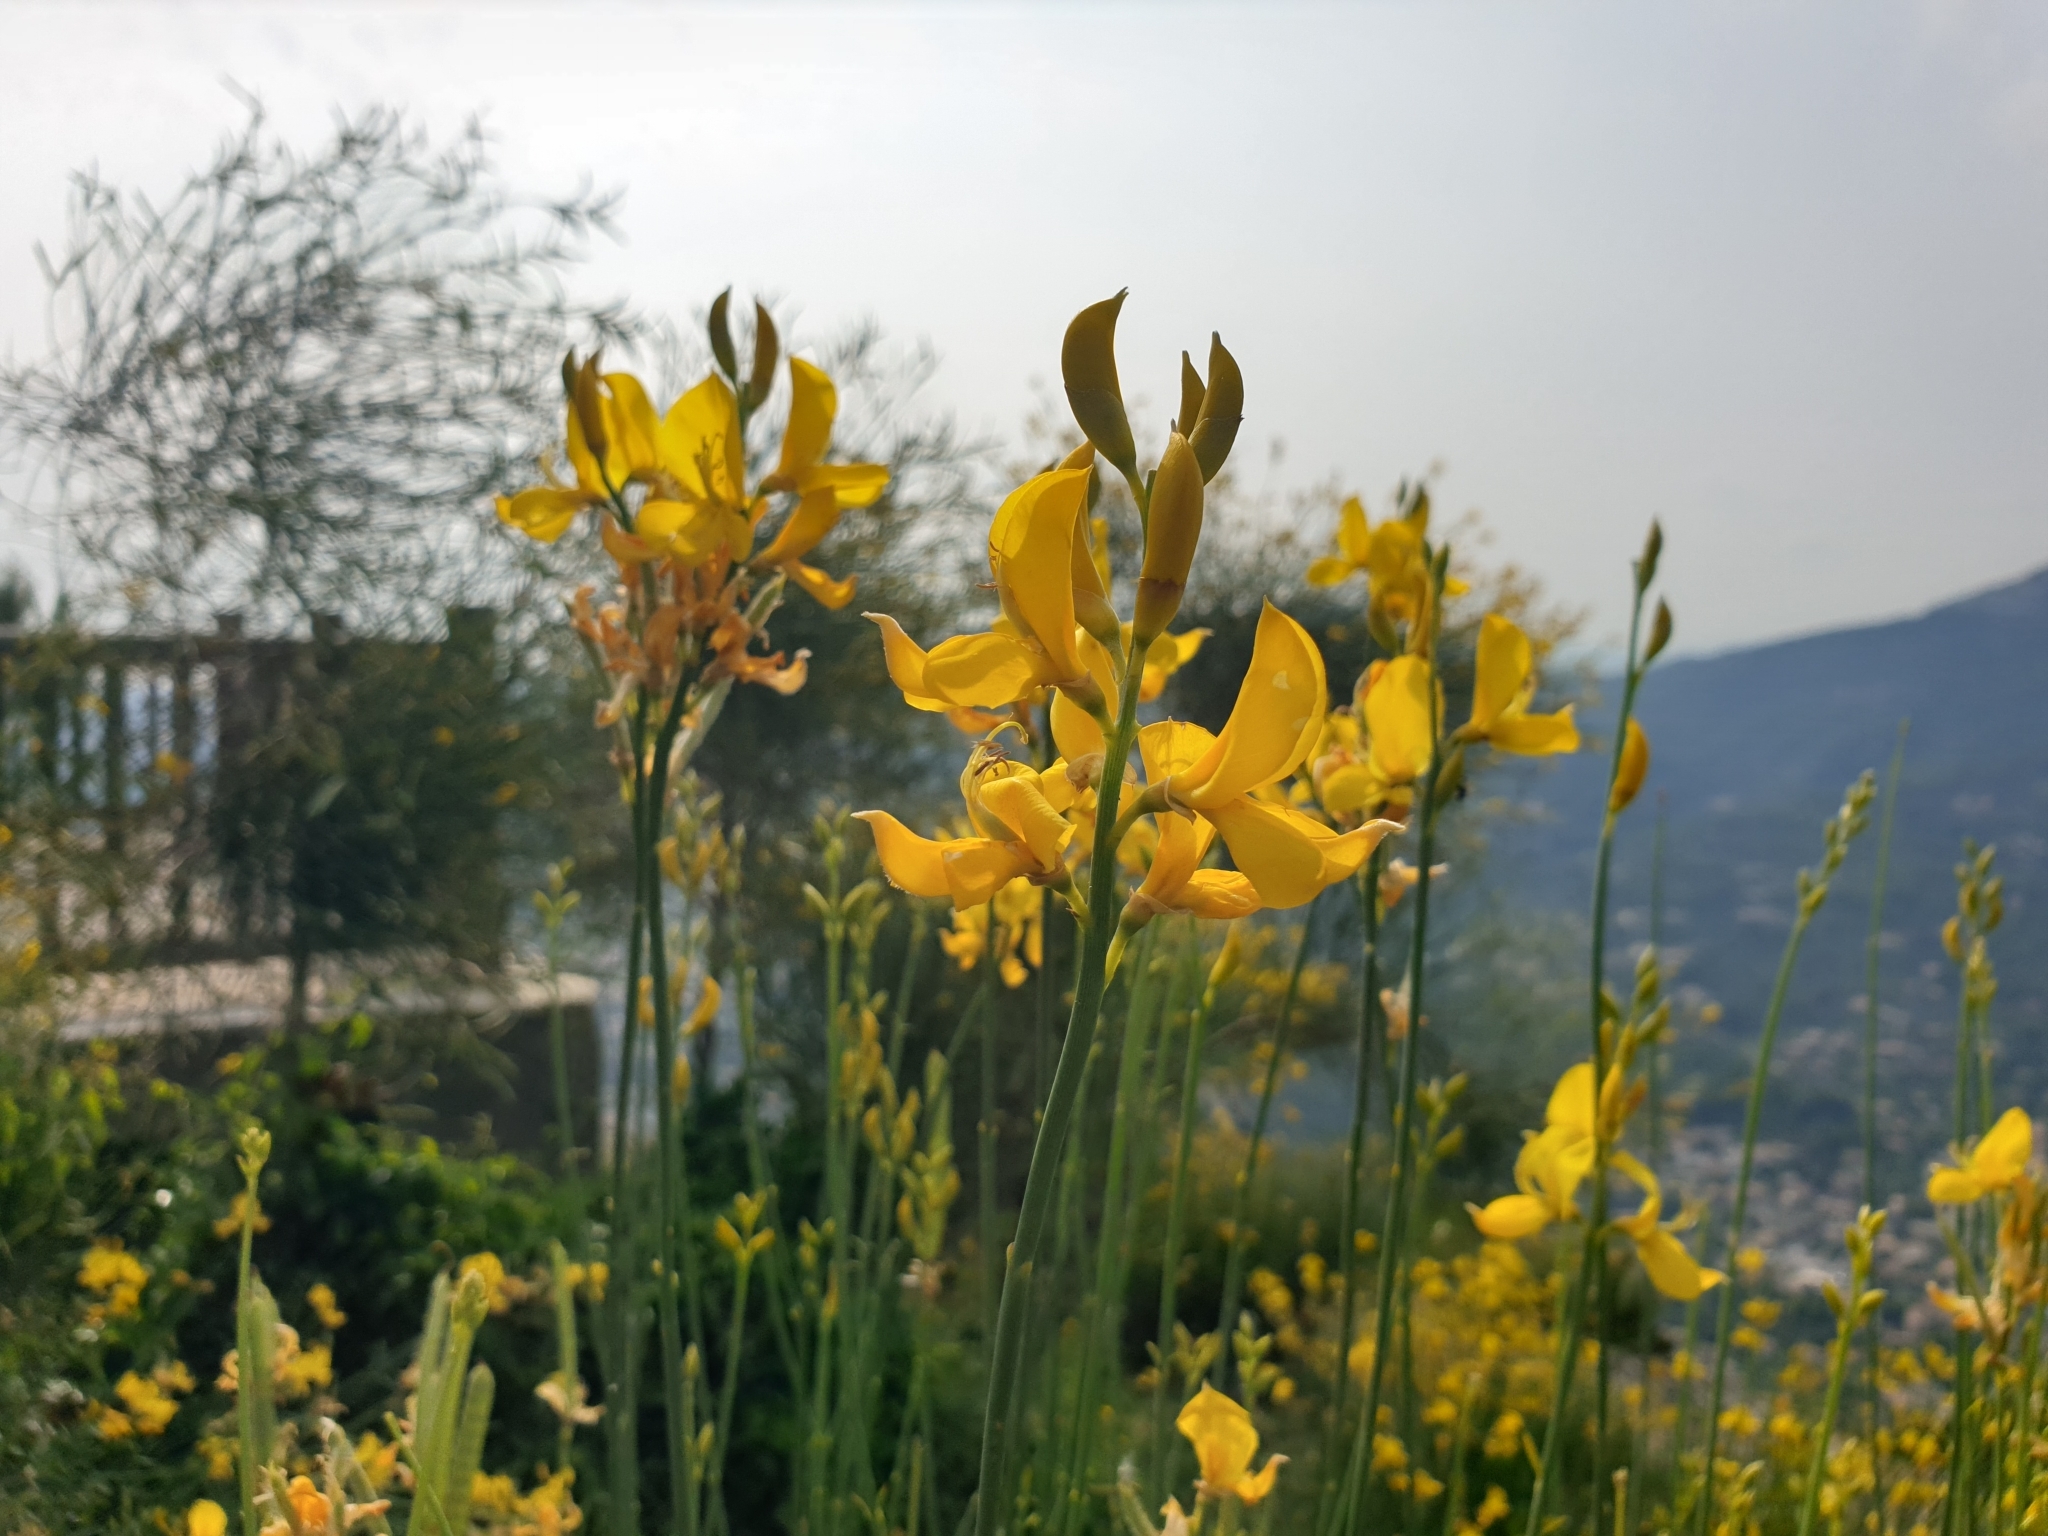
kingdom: Plantae
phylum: Tracheophyta
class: Magnoliopsida
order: Fabales
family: Fabaceae
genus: Spartium
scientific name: Spartium junceum
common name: Spanish broom
